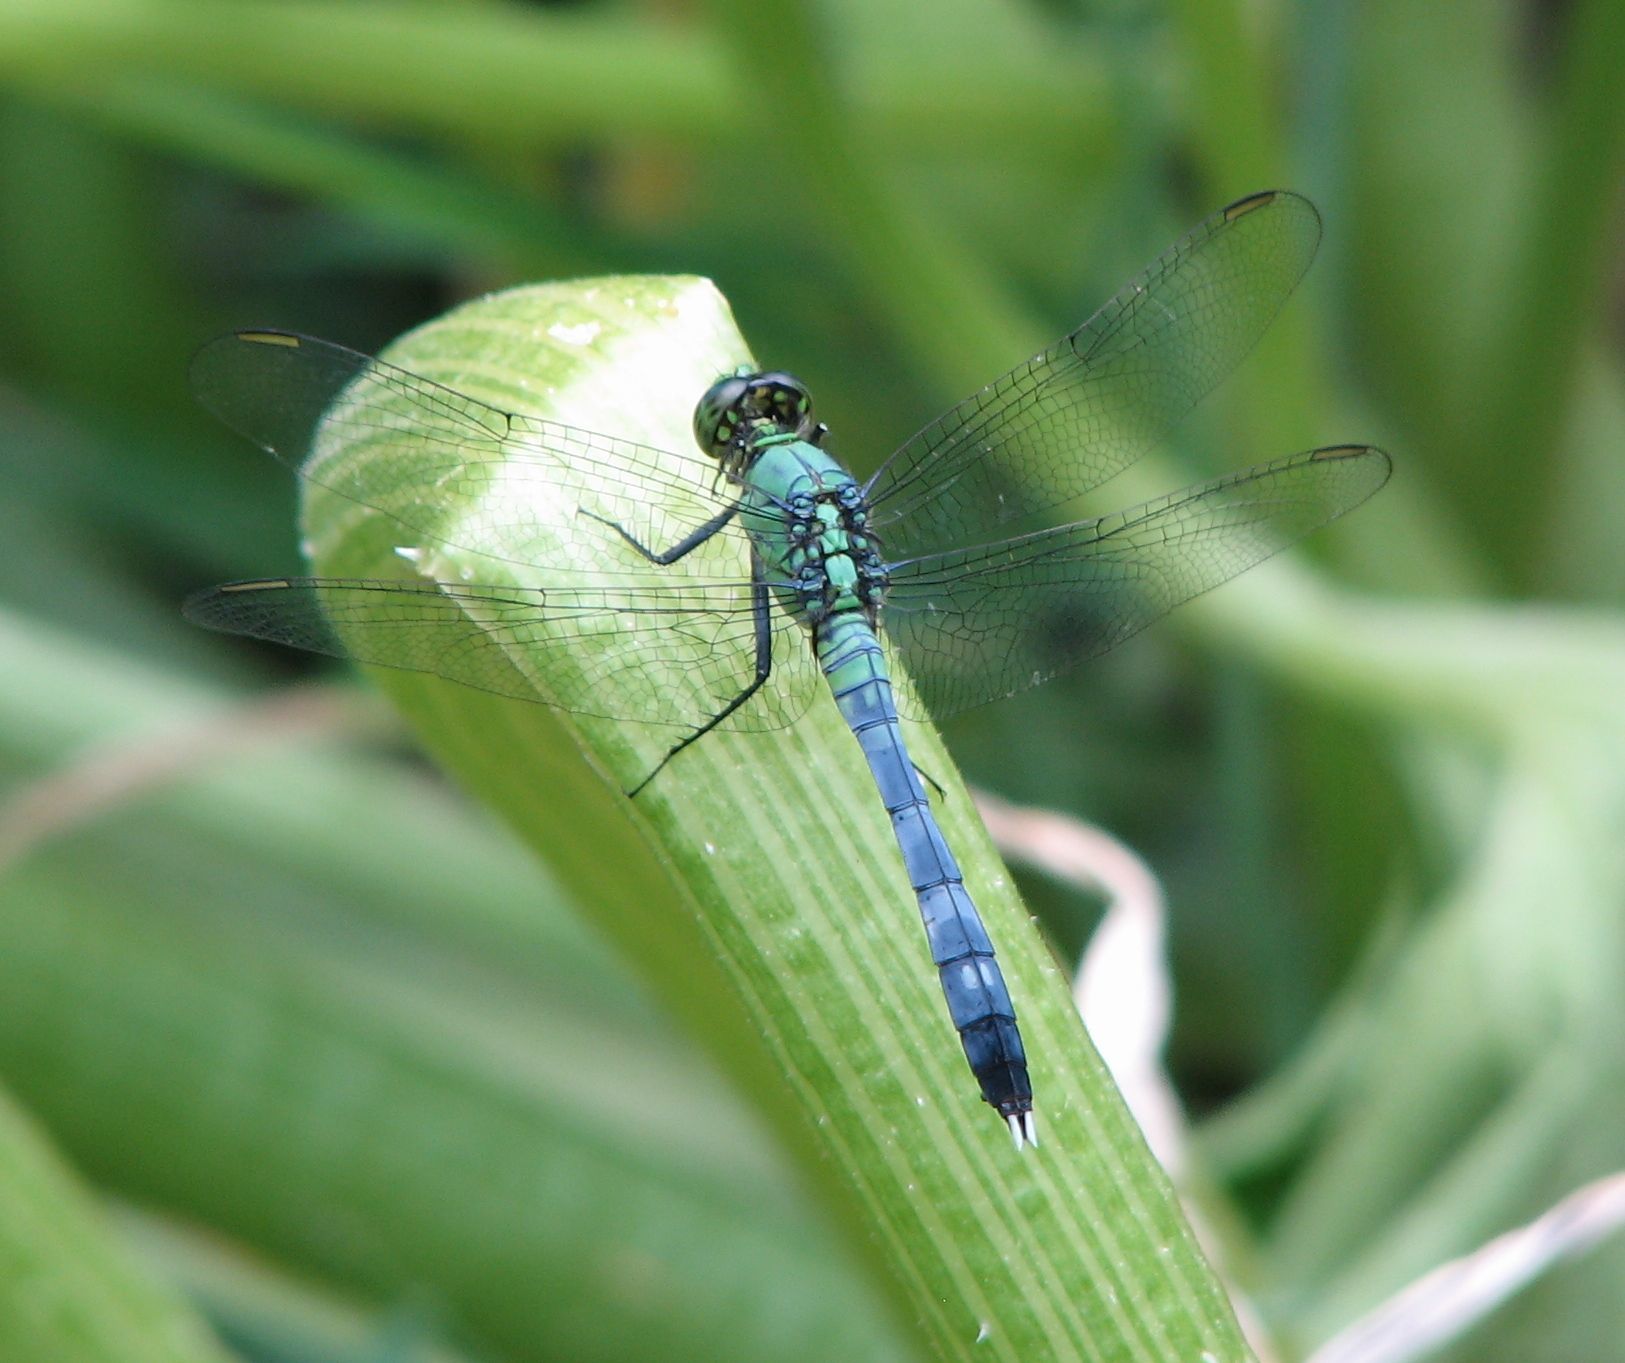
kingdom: Animalia
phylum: Arthropoda
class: Insecta
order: Odonata
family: Libellulidae
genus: Erythemis
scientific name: Erythemis simplicicollis
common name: Eastern pondhawk
